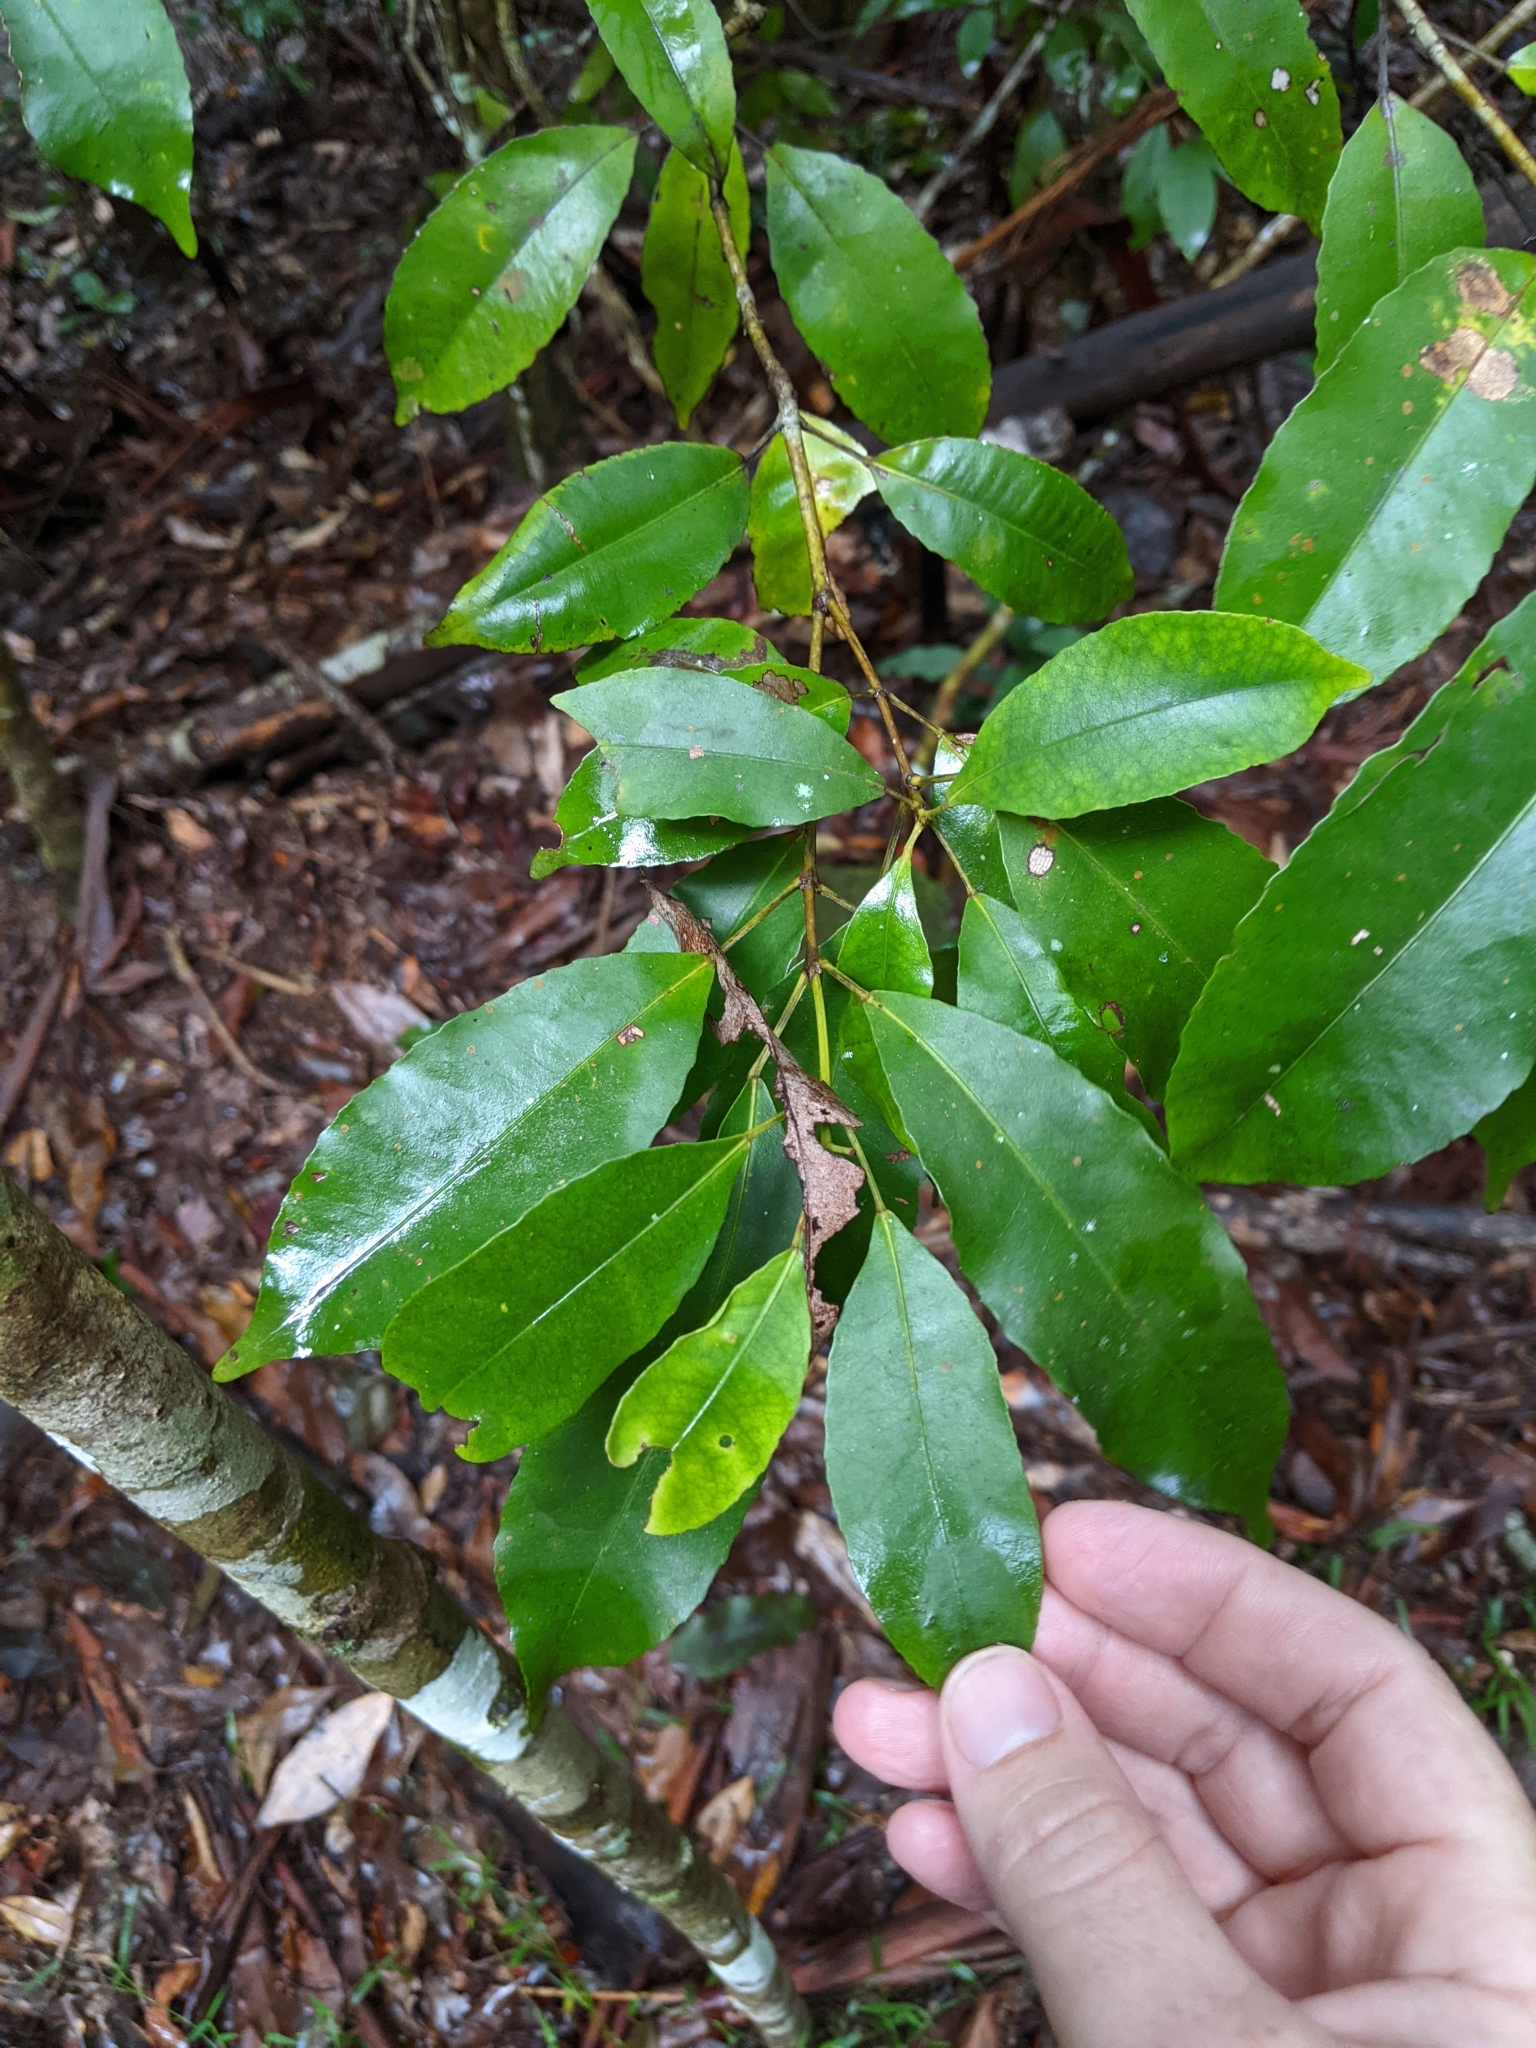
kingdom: Plantae
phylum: Tracheophyta
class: Magnoliopsida
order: Oxalidales
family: Cunoniaceae
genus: Ceratopetalum
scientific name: Ceratopetalum apetalum
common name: Scented satinwood
